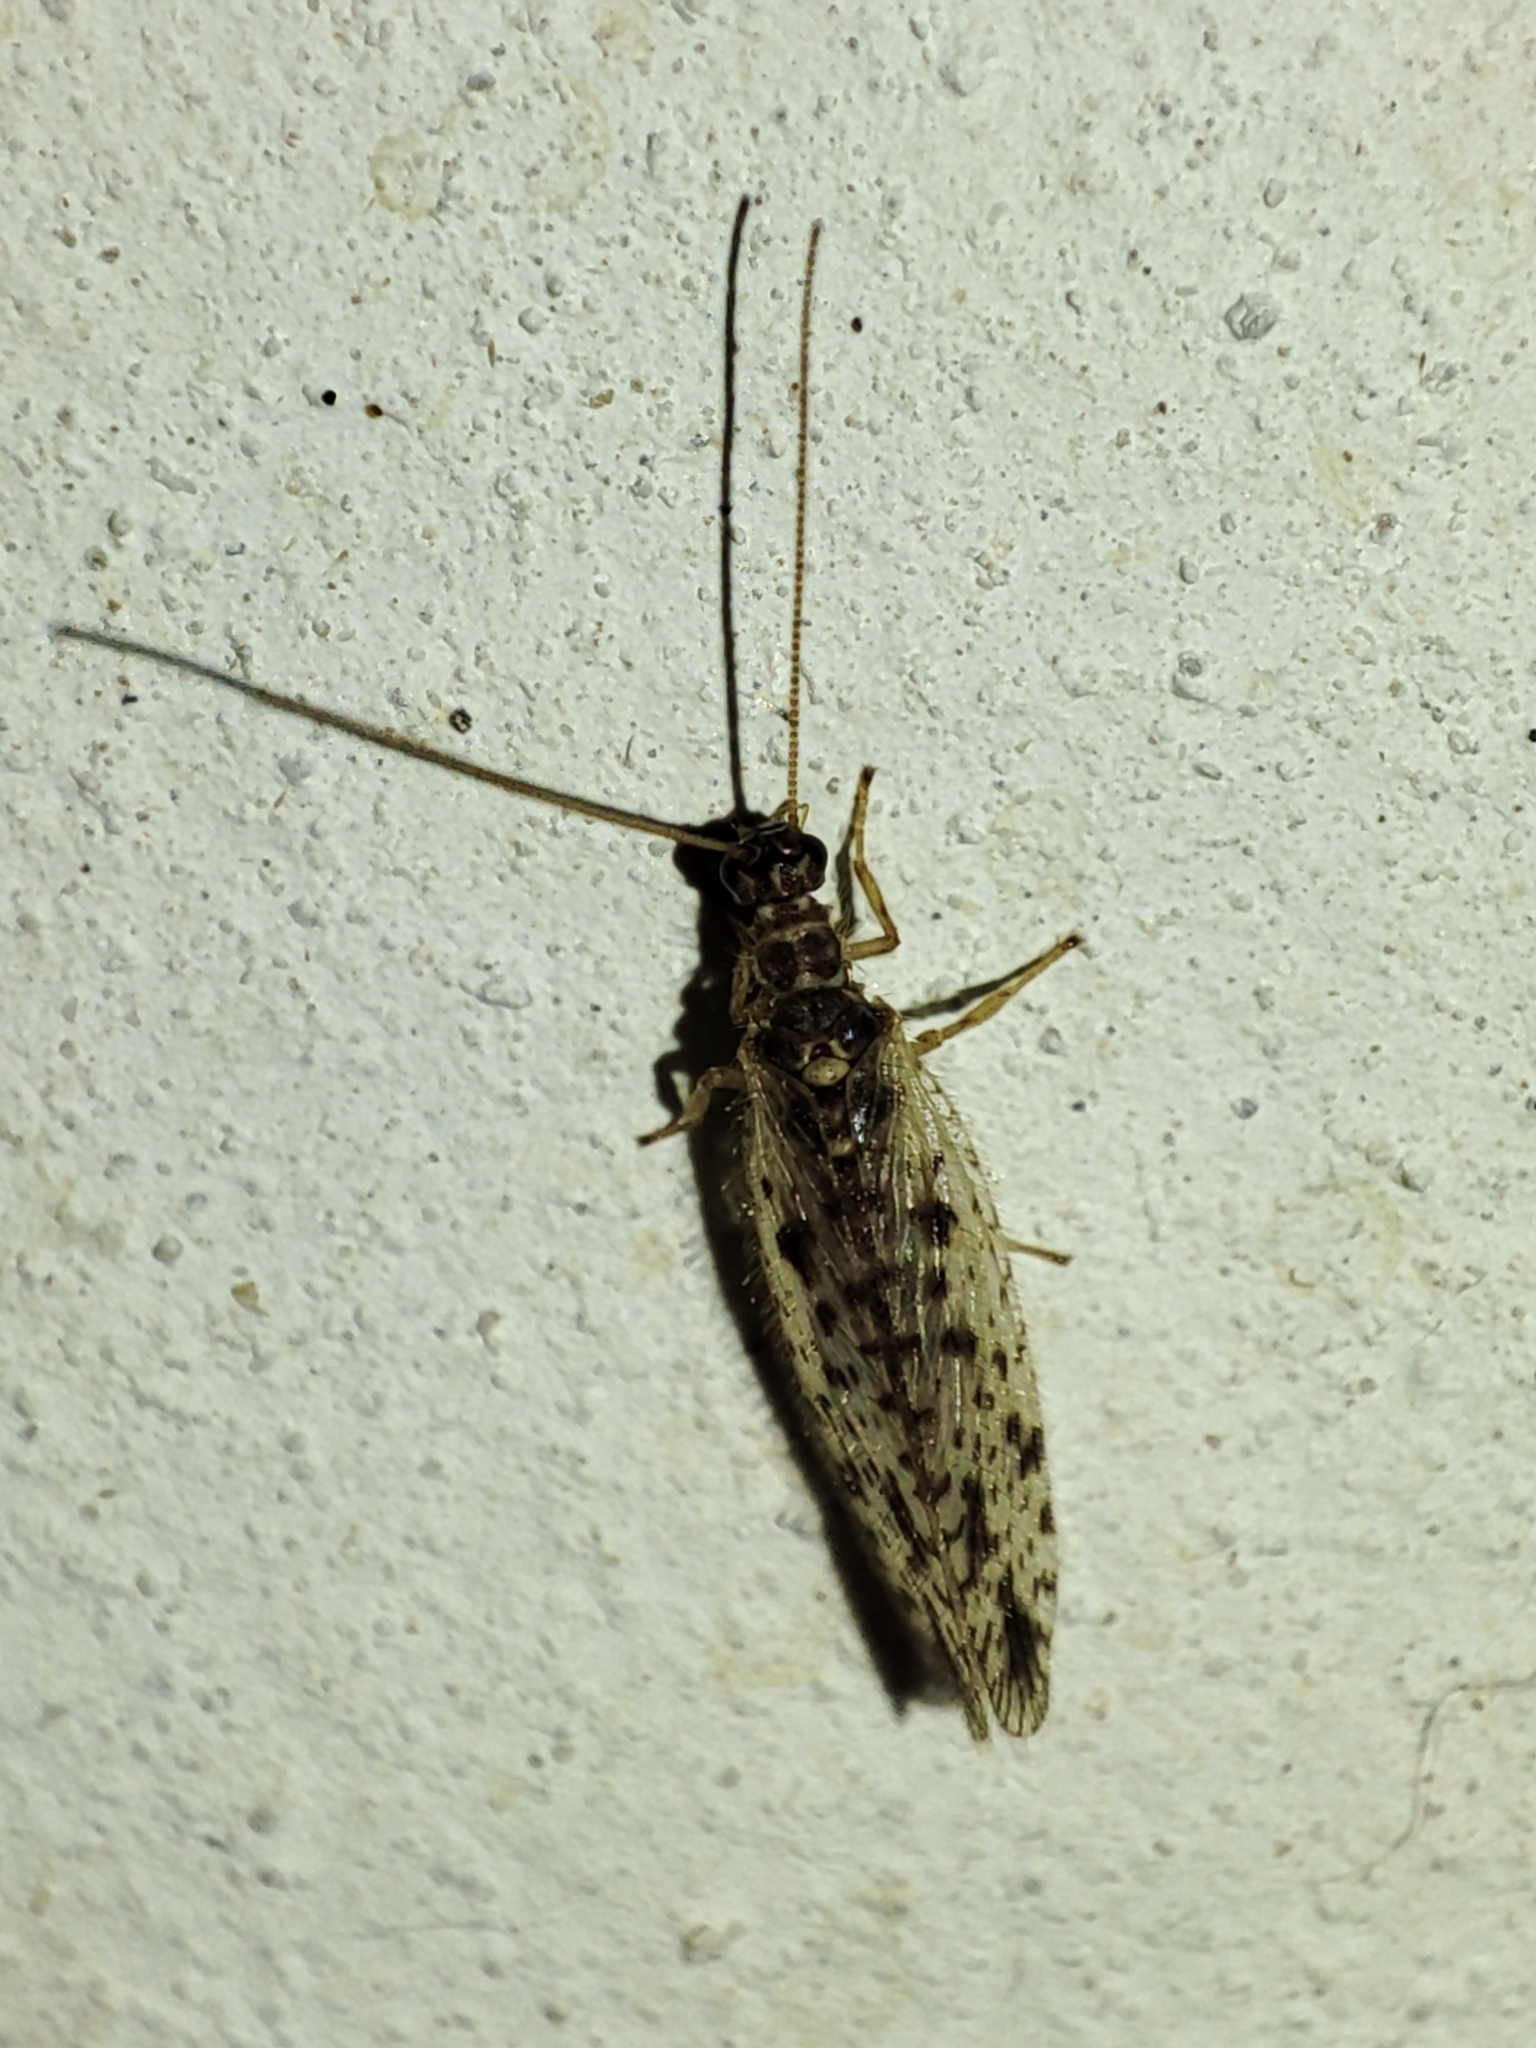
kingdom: Animalia
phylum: Arthropoda
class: Insecta
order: Neuroptera
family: Hemerobiidae
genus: Micromus
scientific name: Micromus variegatus
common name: Brown lacewing
